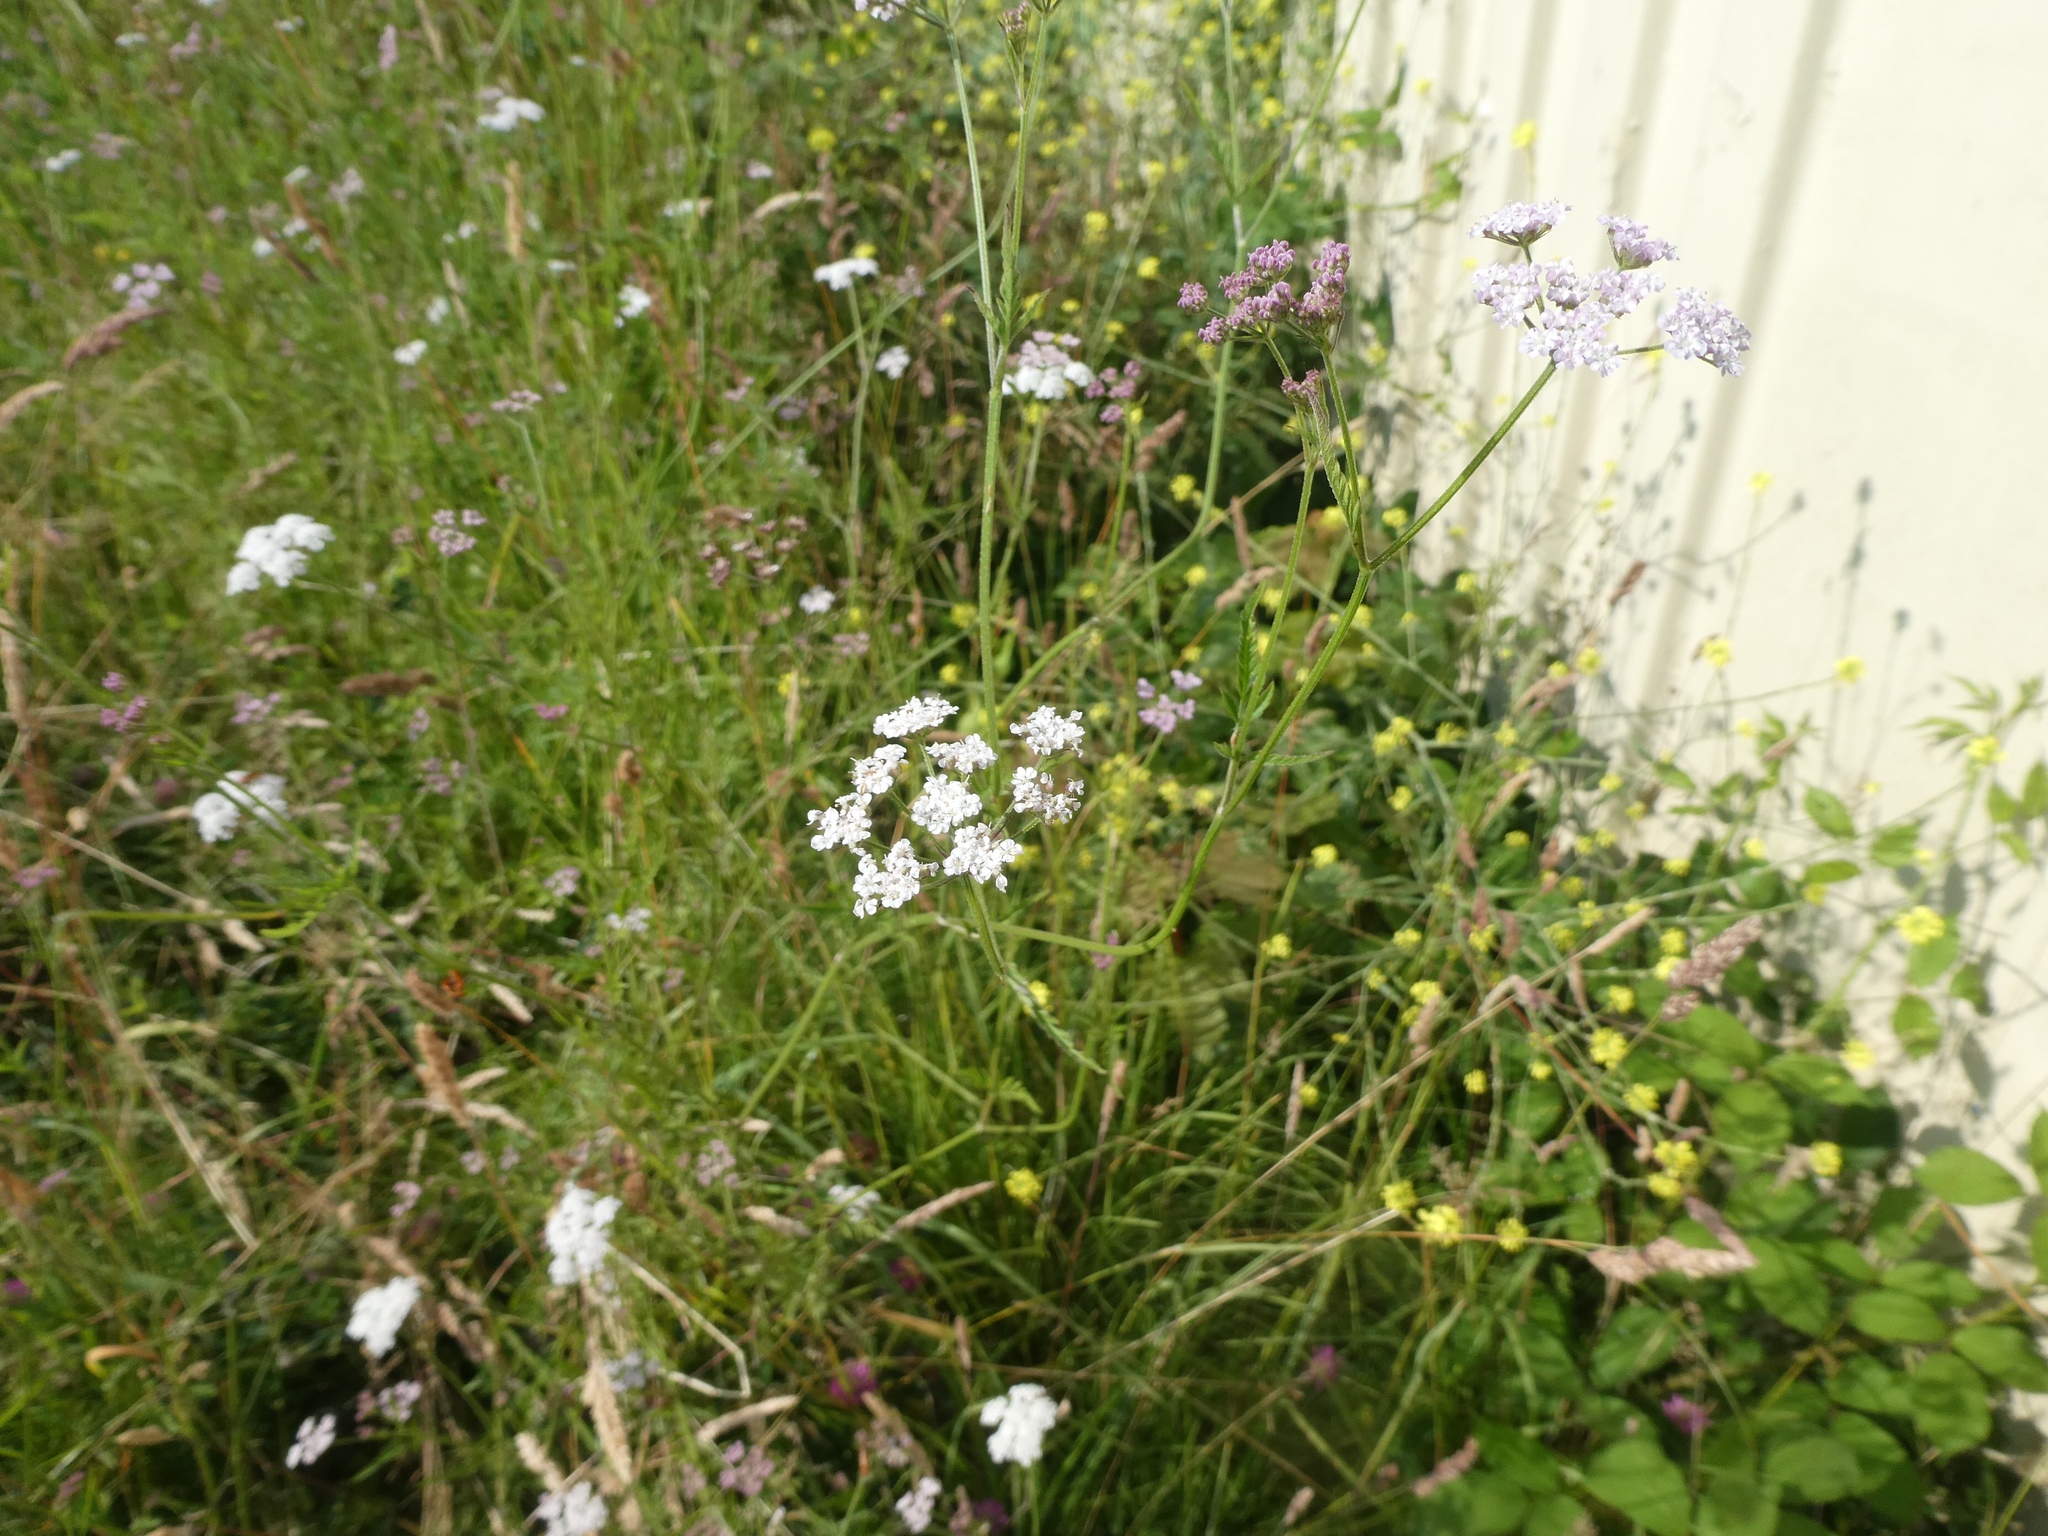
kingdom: Plantae
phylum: Tracheophyta
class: Magnoliopsida
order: Apiales
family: Apiaceae
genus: Torilis
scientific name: Torilis japonica
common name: Upright hedge-parsley
